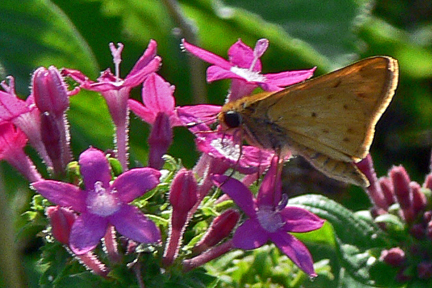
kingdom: Animalia
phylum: Arthropoda
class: Insecta
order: Lepidoptera
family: Hesperiidae
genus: Hylephila
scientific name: Hylephila phyleus
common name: Fiery skipper
